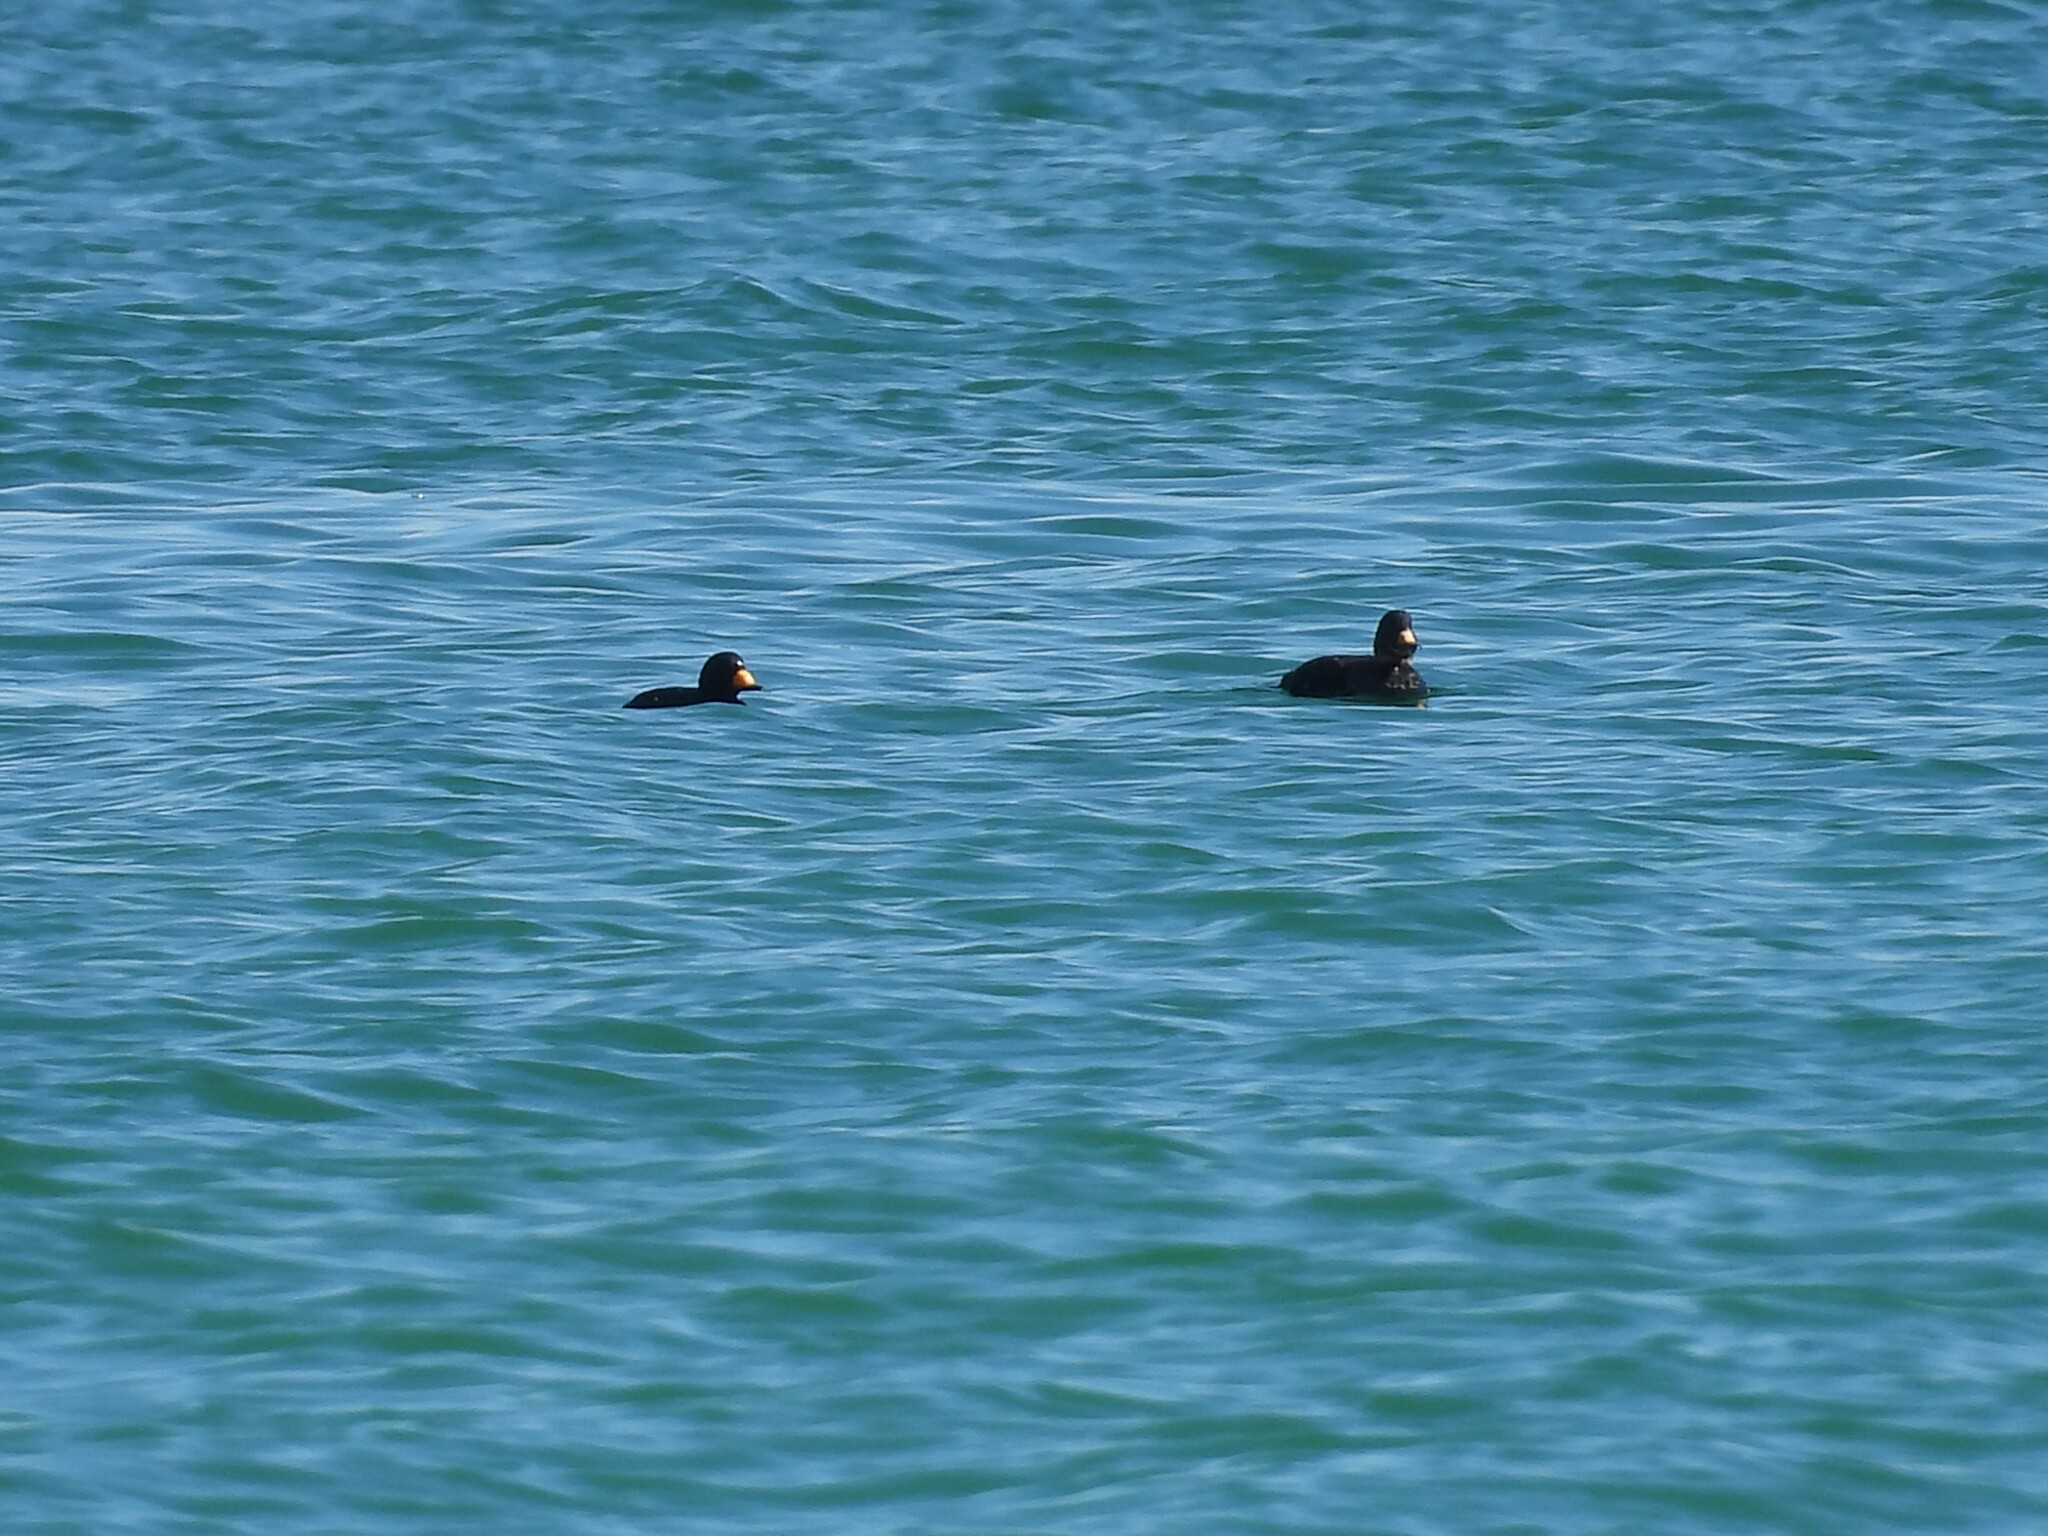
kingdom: Animalia
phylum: Chordata
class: Aves
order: Anseriformes
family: Anatidae
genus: Melanitta
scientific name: Melanitta americana
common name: Black scoter
